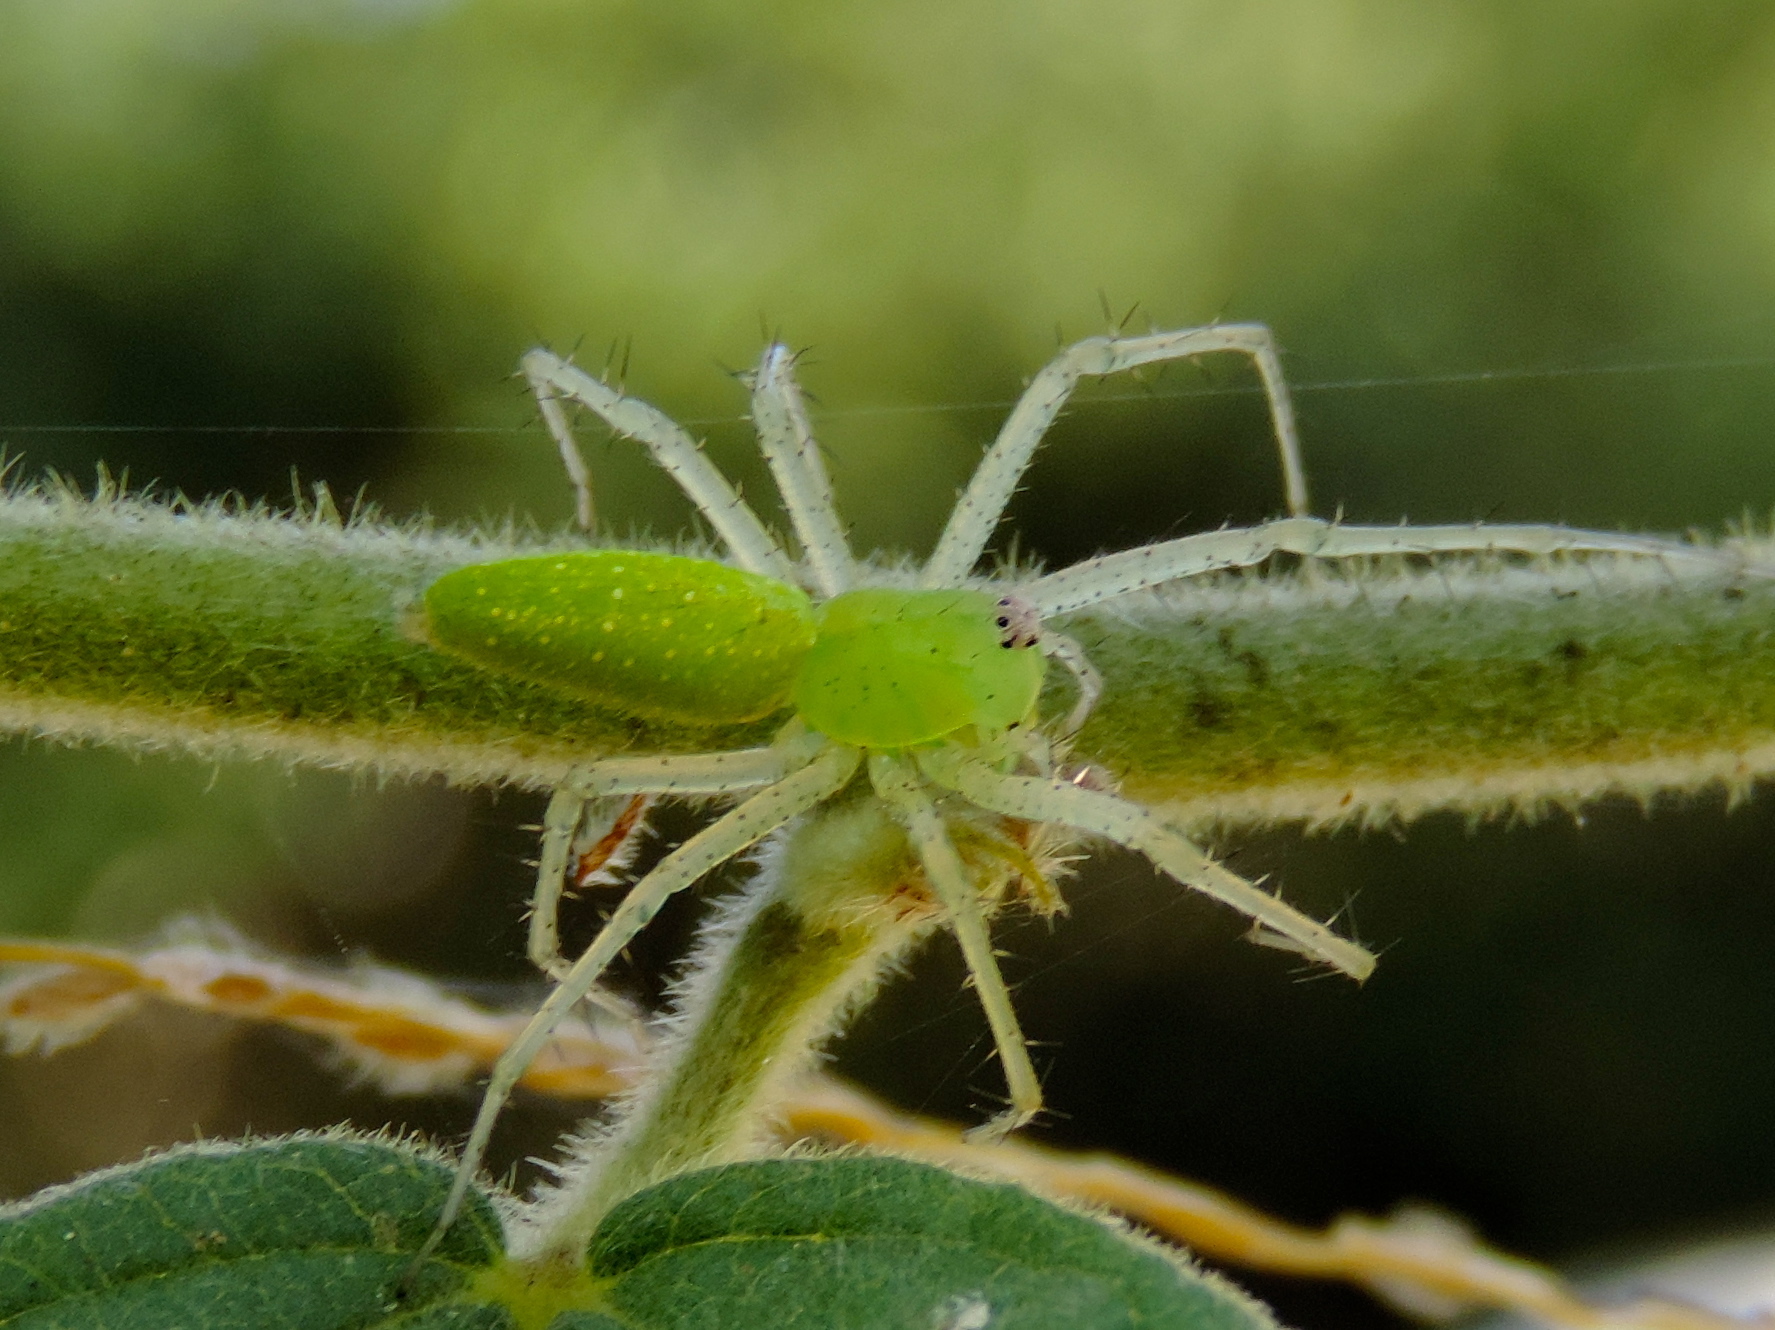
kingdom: Animalia
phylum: Arthropoda
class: Arachnida
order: Araneae
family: Oxyopidae
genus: Peucetia
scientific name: Peucetia longipalpis
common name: Lynx spiders
